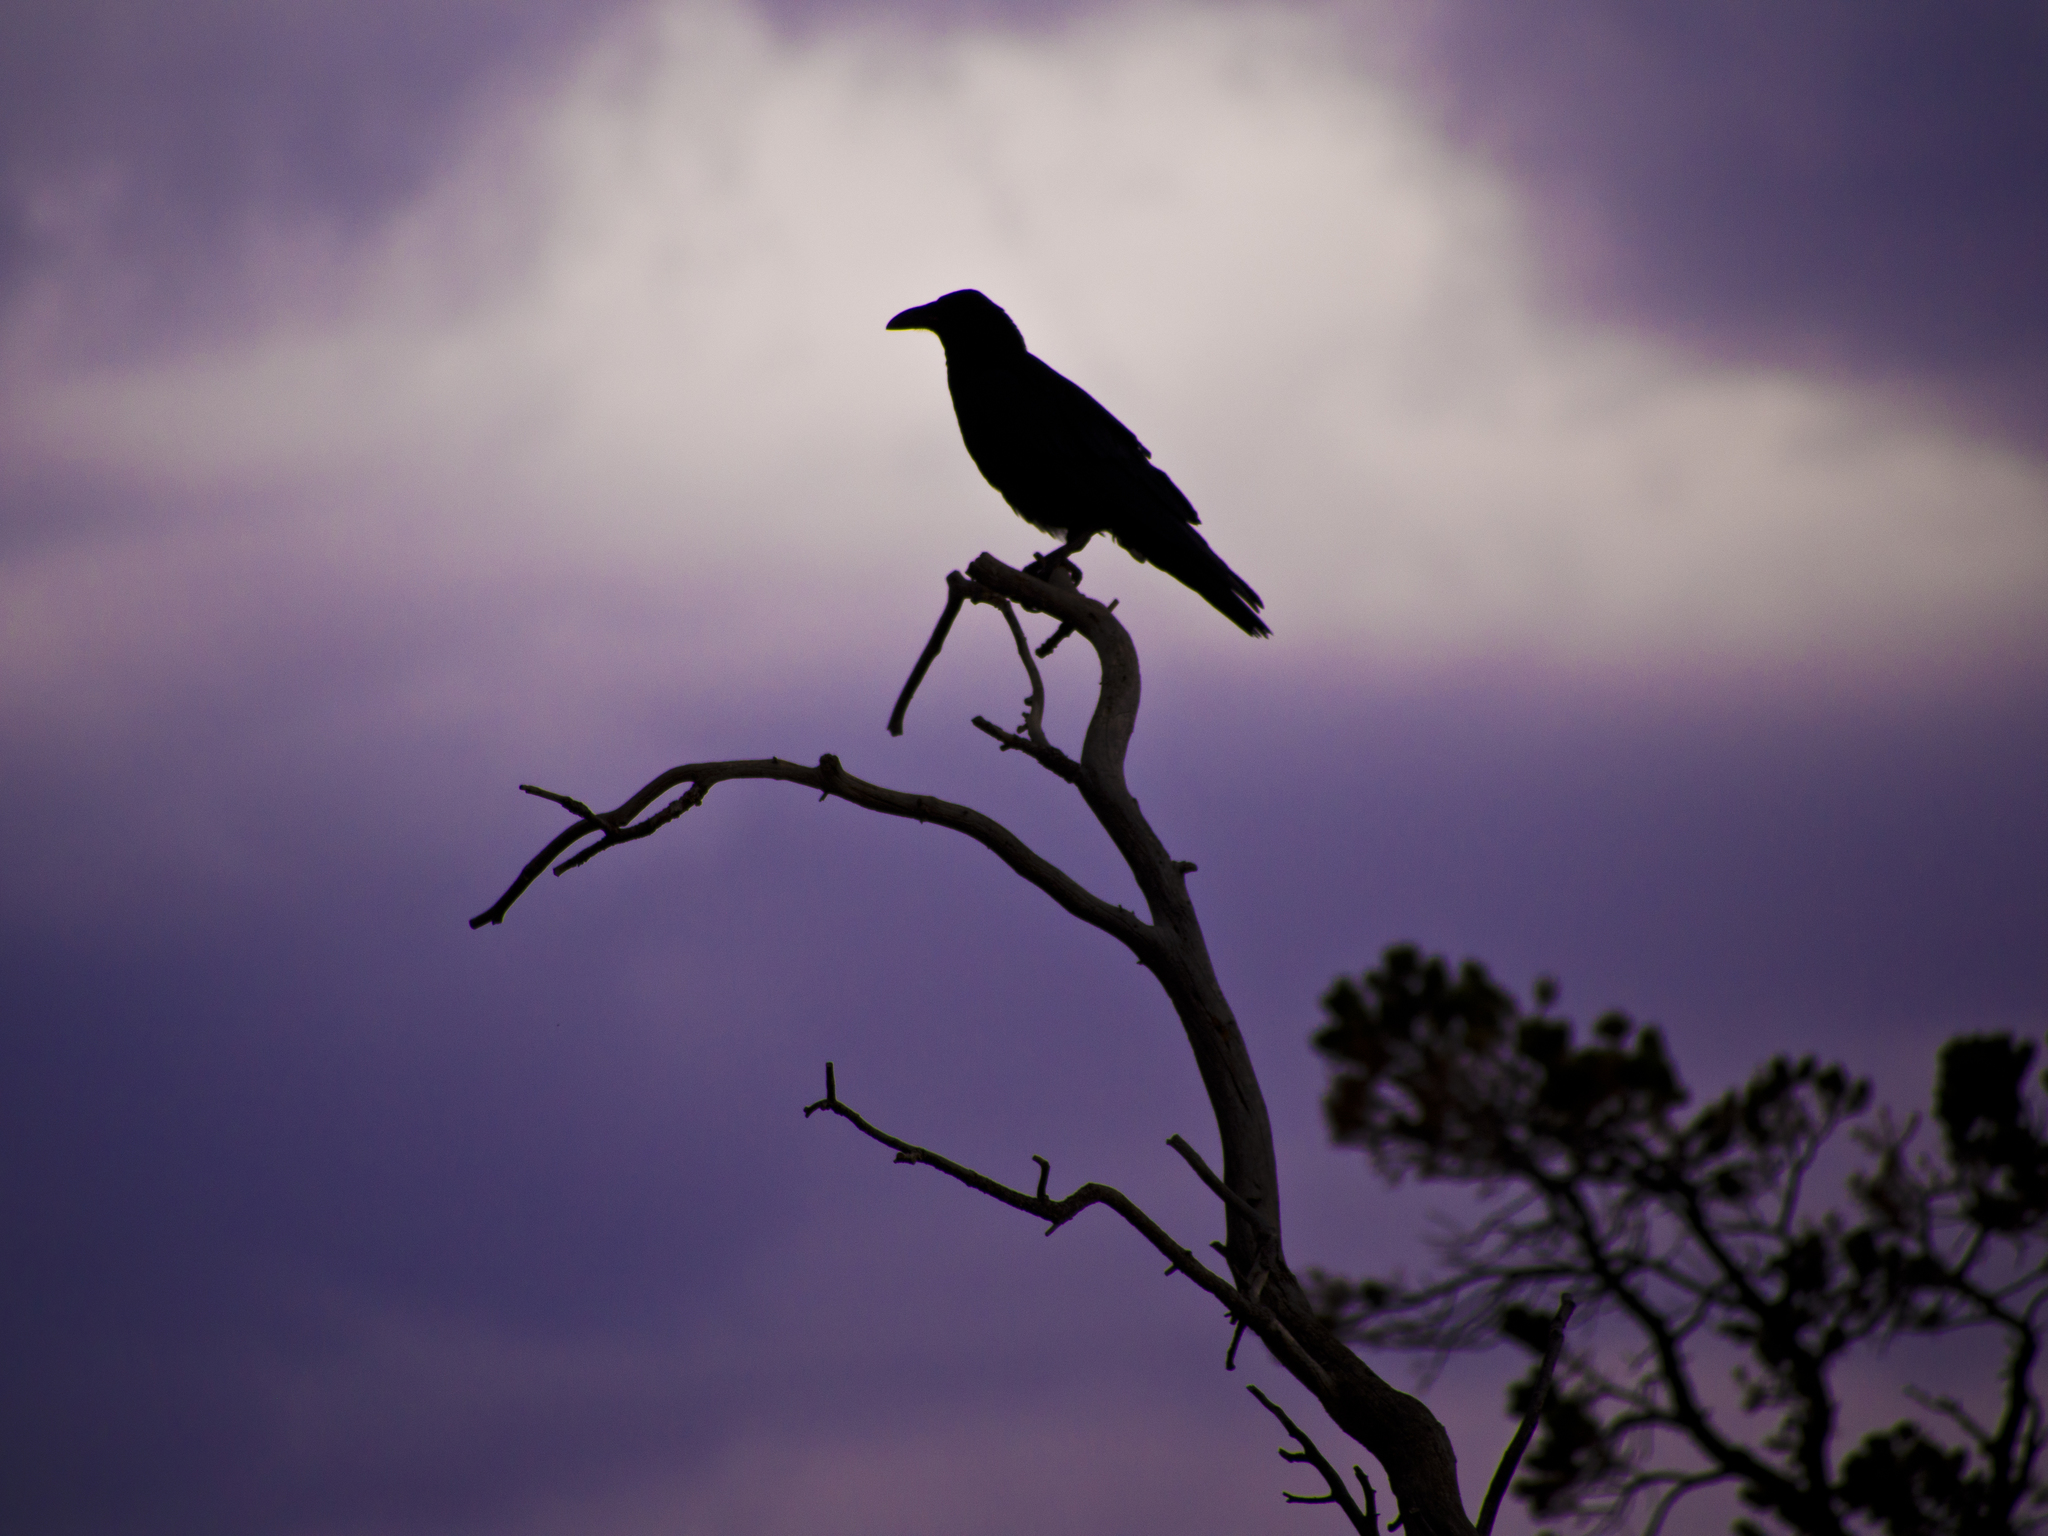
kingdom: Animalia
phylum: Chordata
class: Aves
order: Passeriformes
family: Corvidae
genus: Corvus
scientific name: Corvus corax
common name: Common raven
